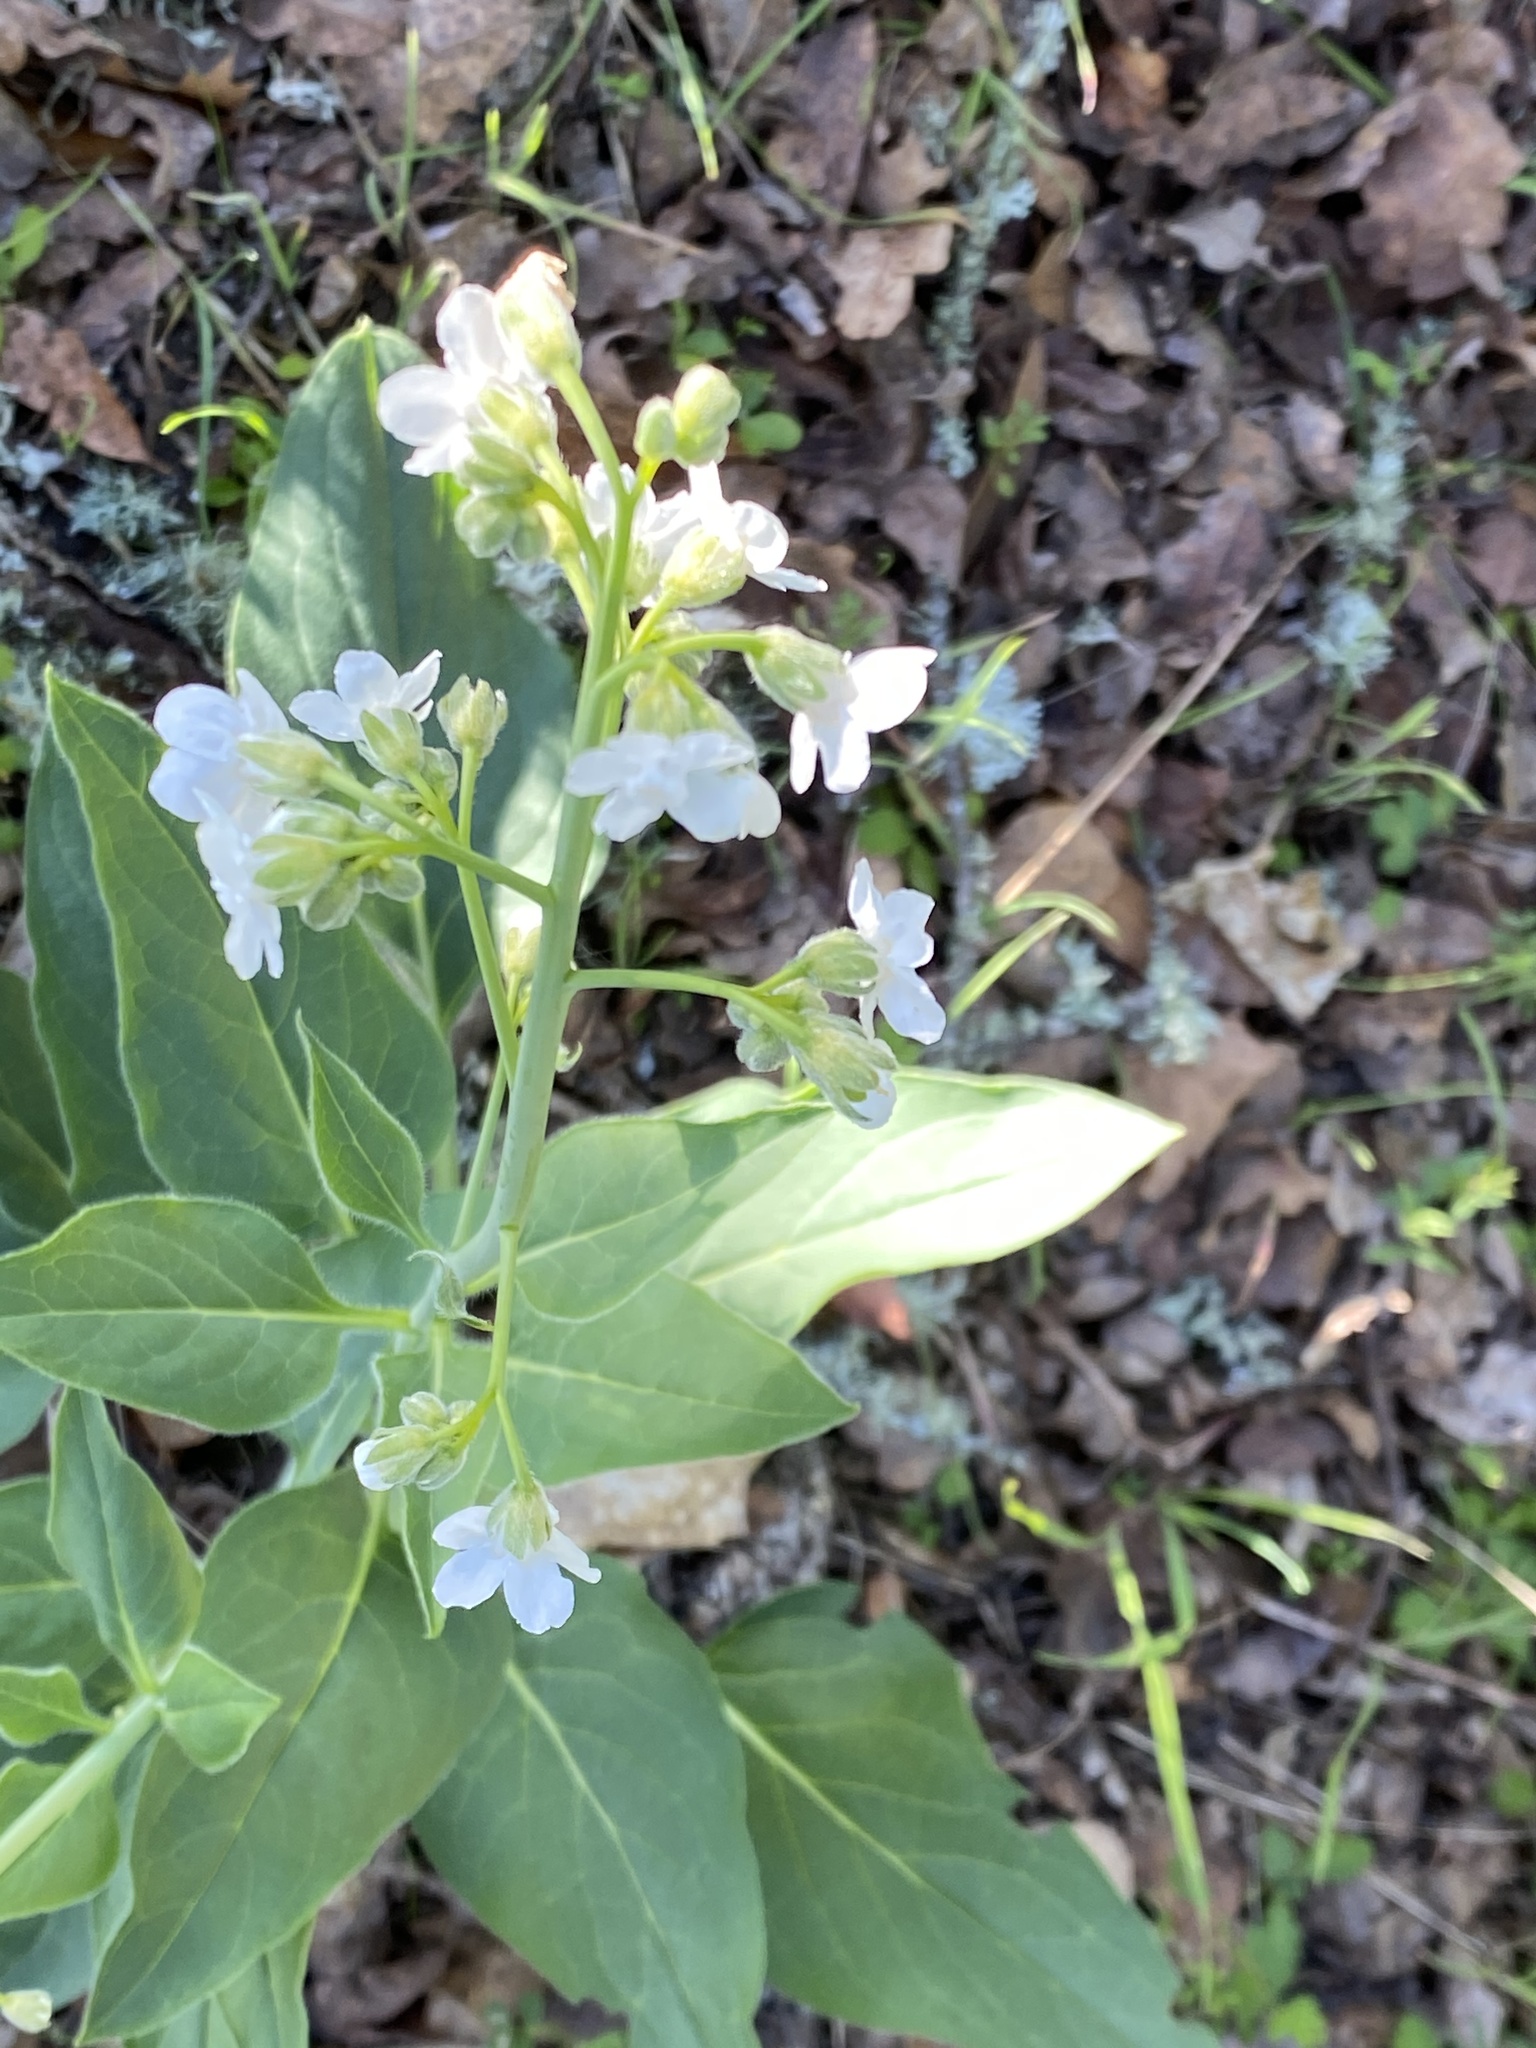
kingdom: Plantae
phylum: Tracheophyta
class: Magnoliopsida
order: Boraginales
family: Boraginaceae
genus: Adelinia
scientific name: Adelinia grande
